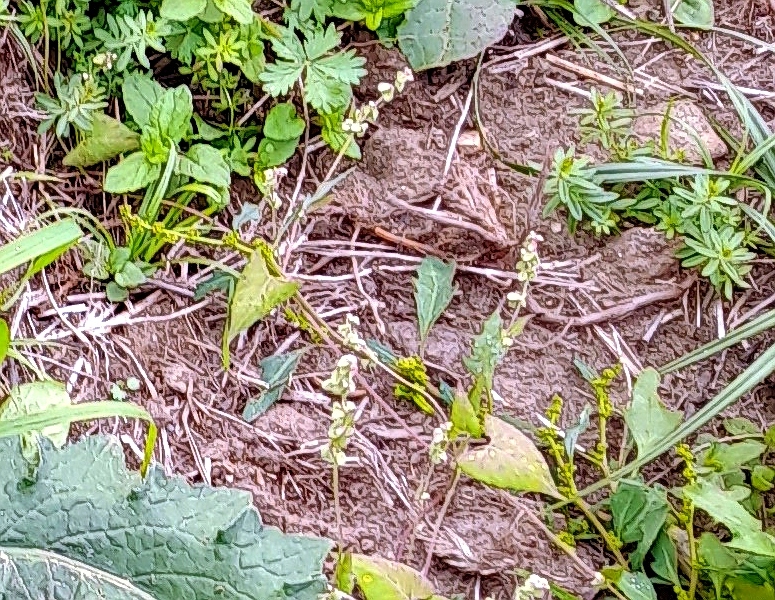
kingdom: Plantae
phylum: Tracheophyta
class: Magnoliopsida
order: Caryophyllales
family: Polygonaceae
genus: Fallopia
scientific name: Fallopia convolvulus
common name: Black bindweed
